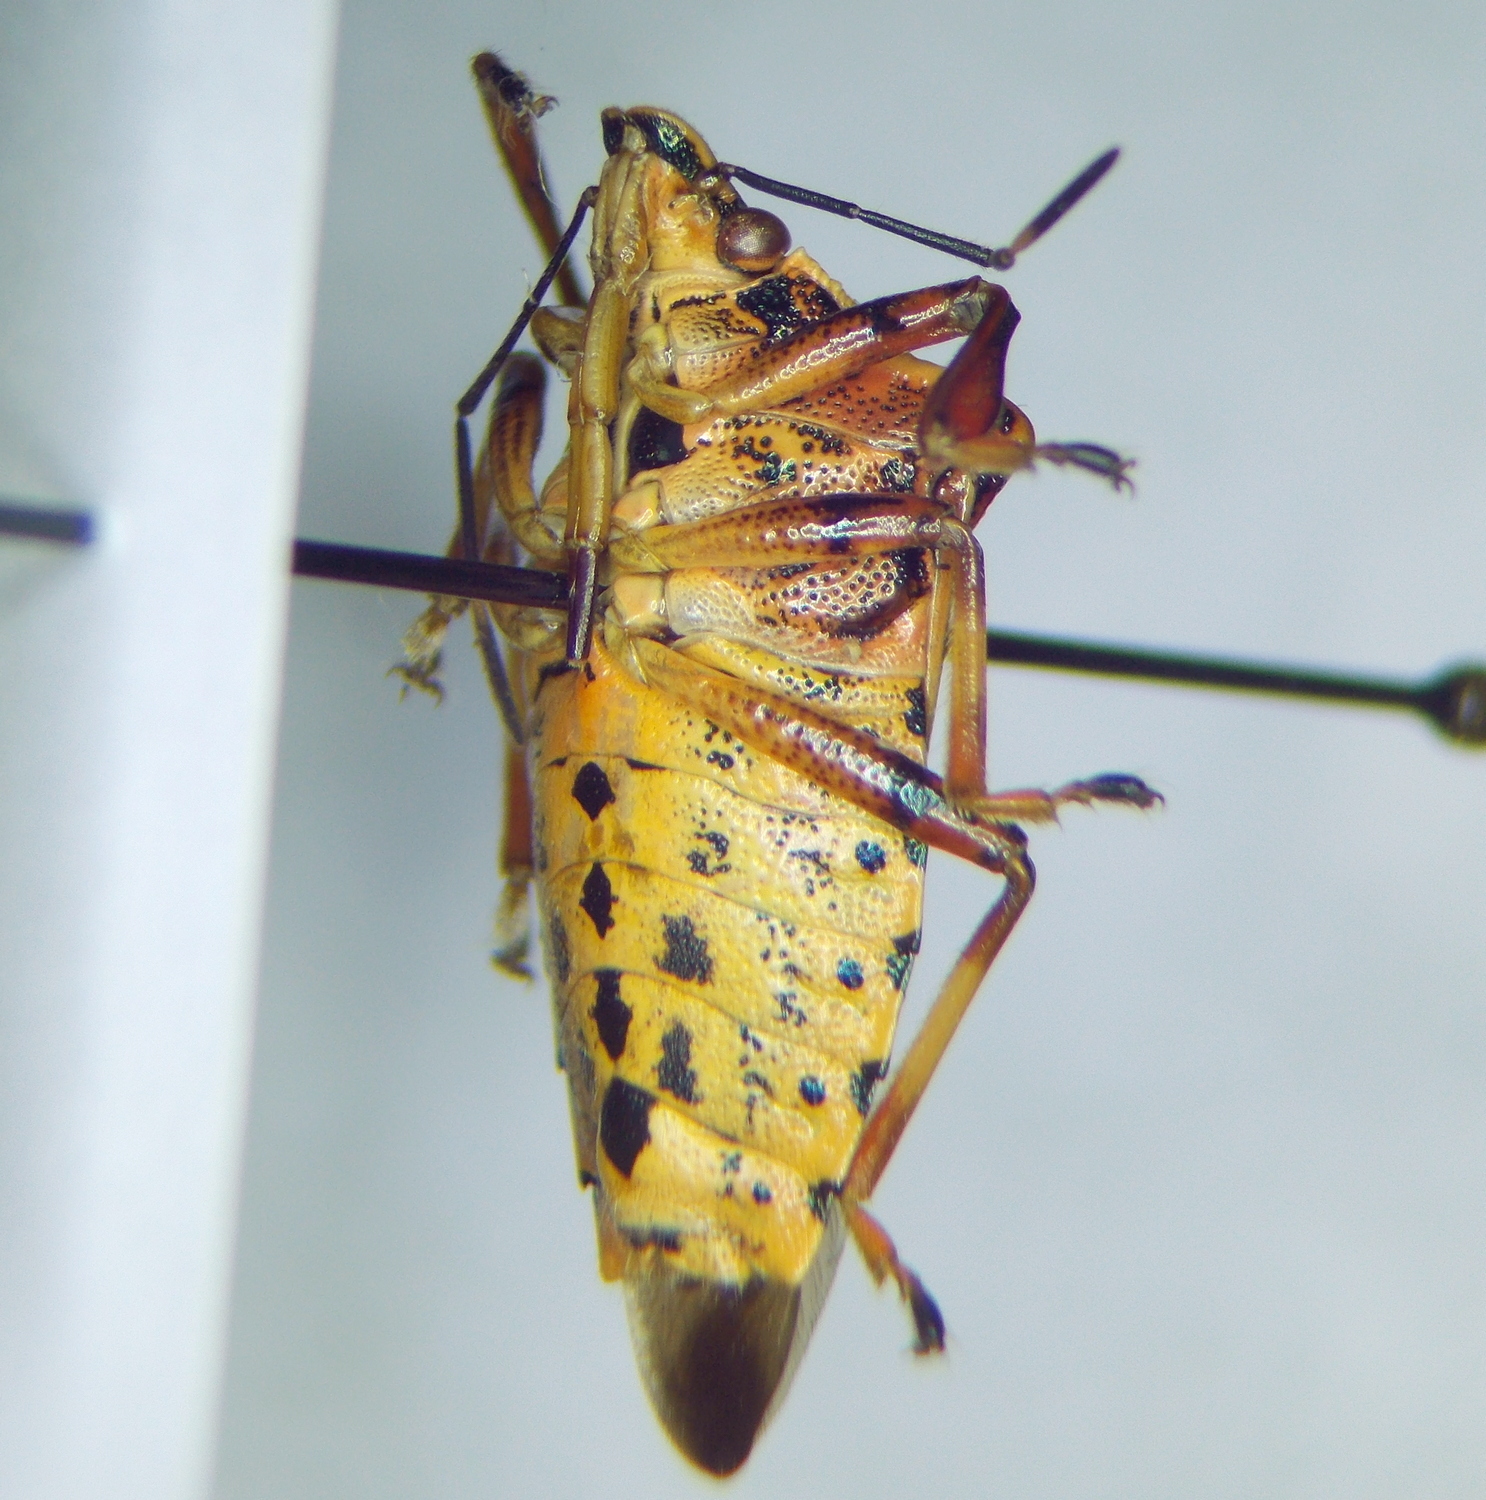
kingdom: Animalia
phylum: Arthropoda
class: Insecta
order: Hemiptera
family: Pentatomidae
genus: Pinthaeus
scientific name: Pinthaeus sanguinipes
